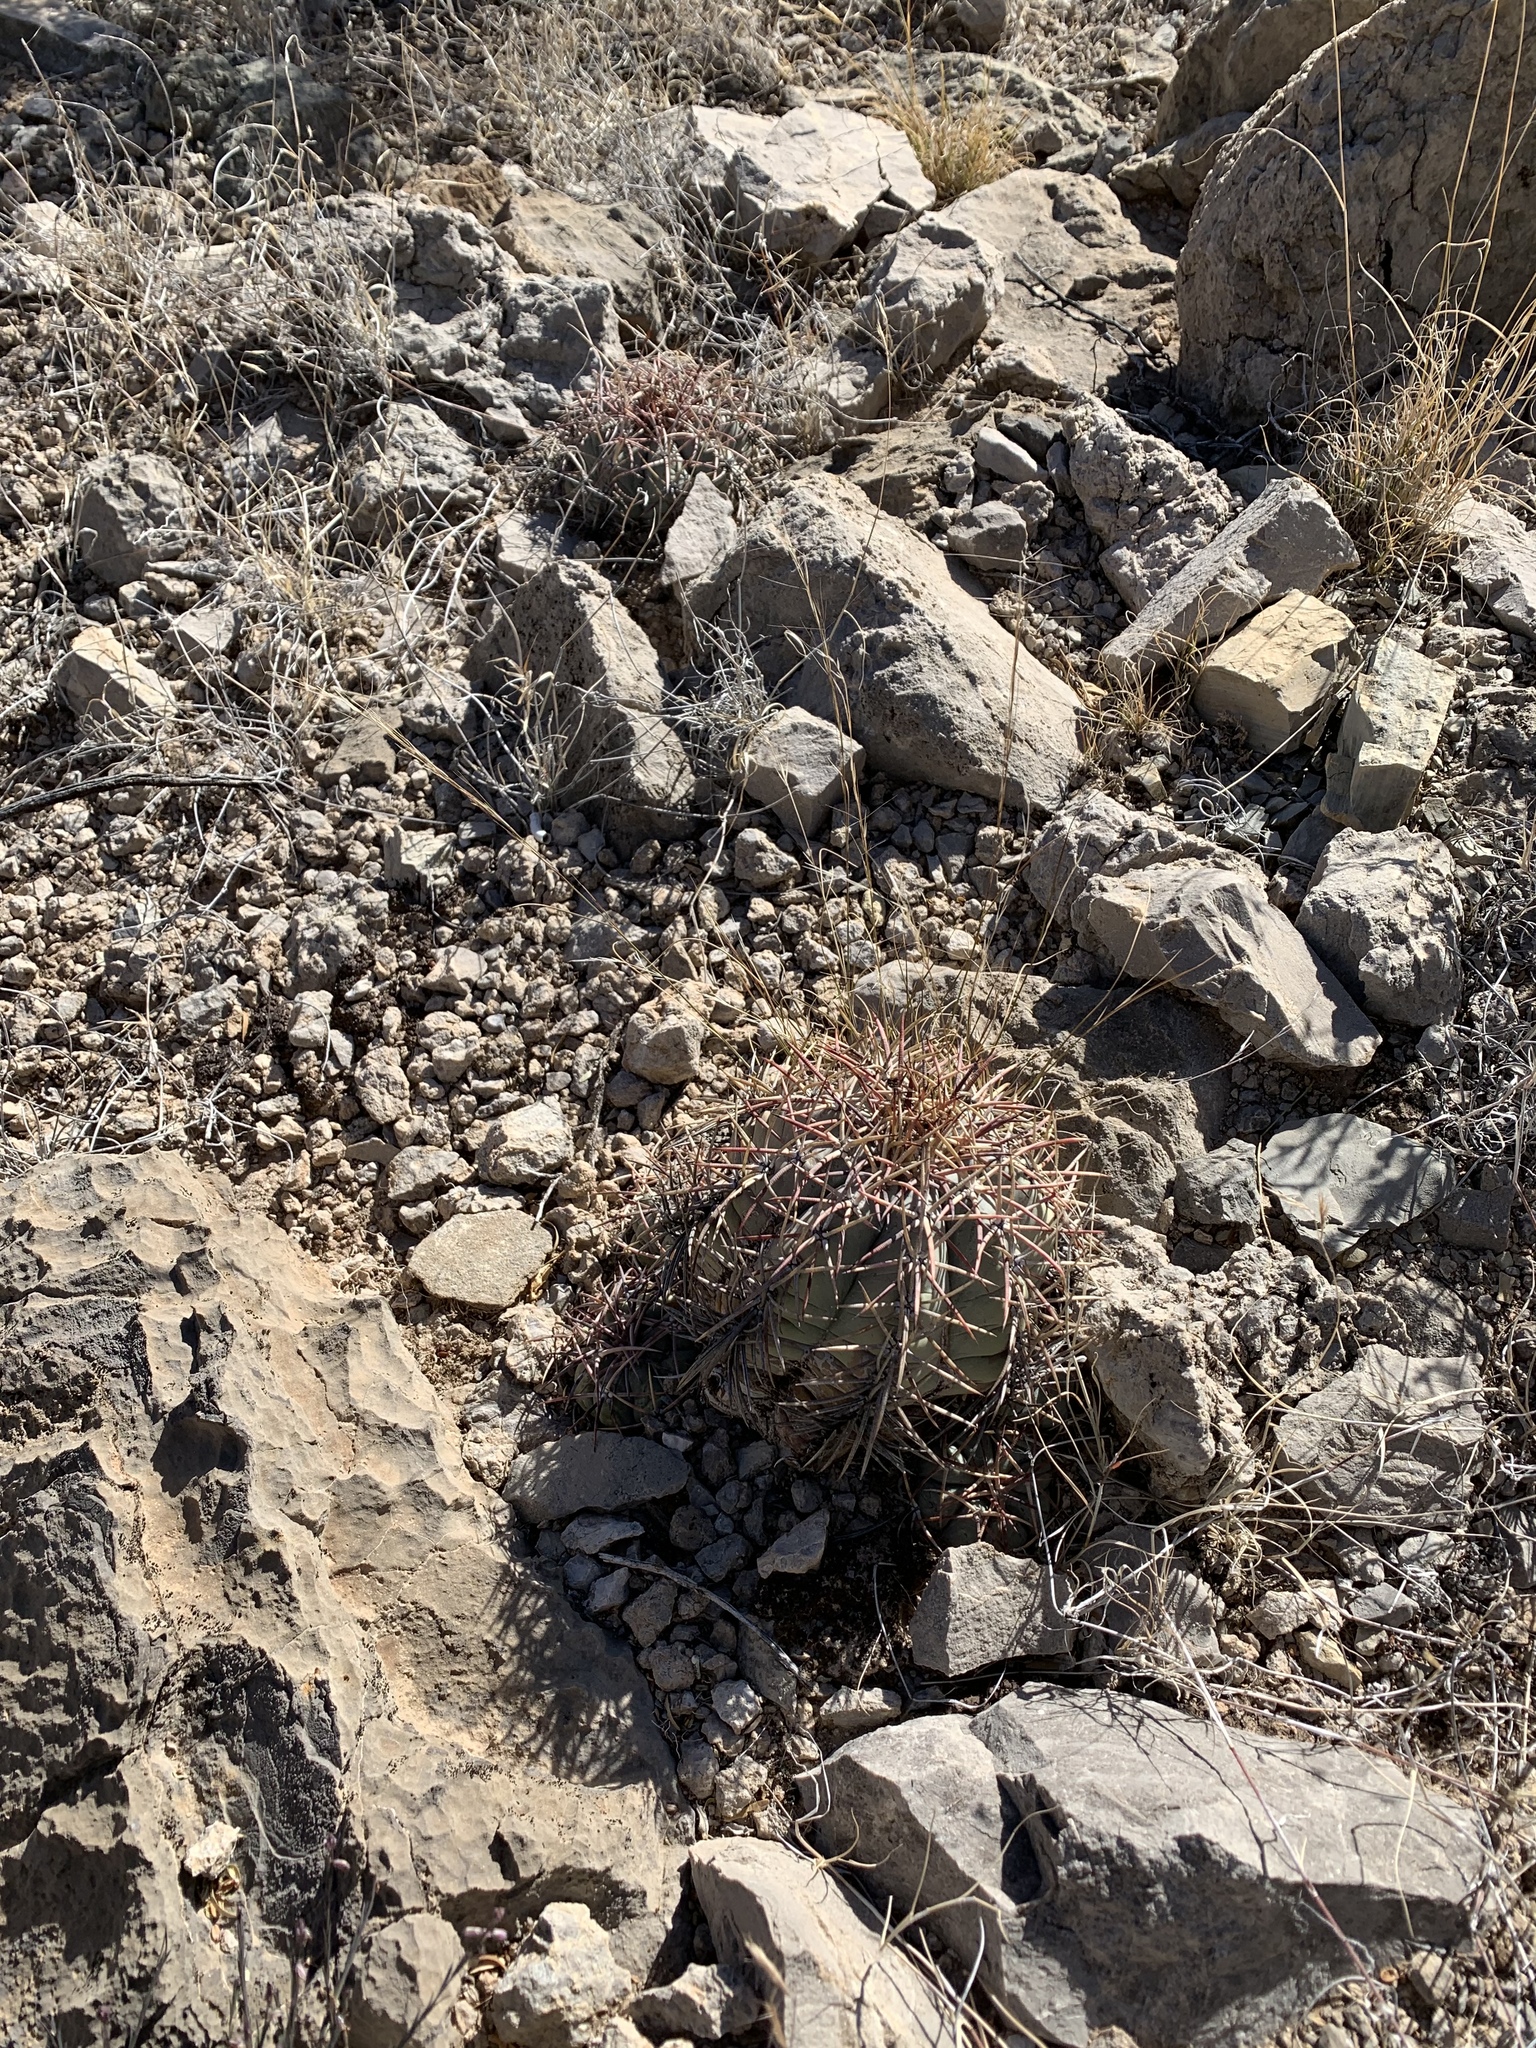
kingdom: Plantae
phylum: Tracheophyta
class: Magnoliopsida
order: Caryophyllales
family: Cactaceae
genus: Echinocactus
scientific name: Echinocactus horizonthalonius
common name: Devilshead
